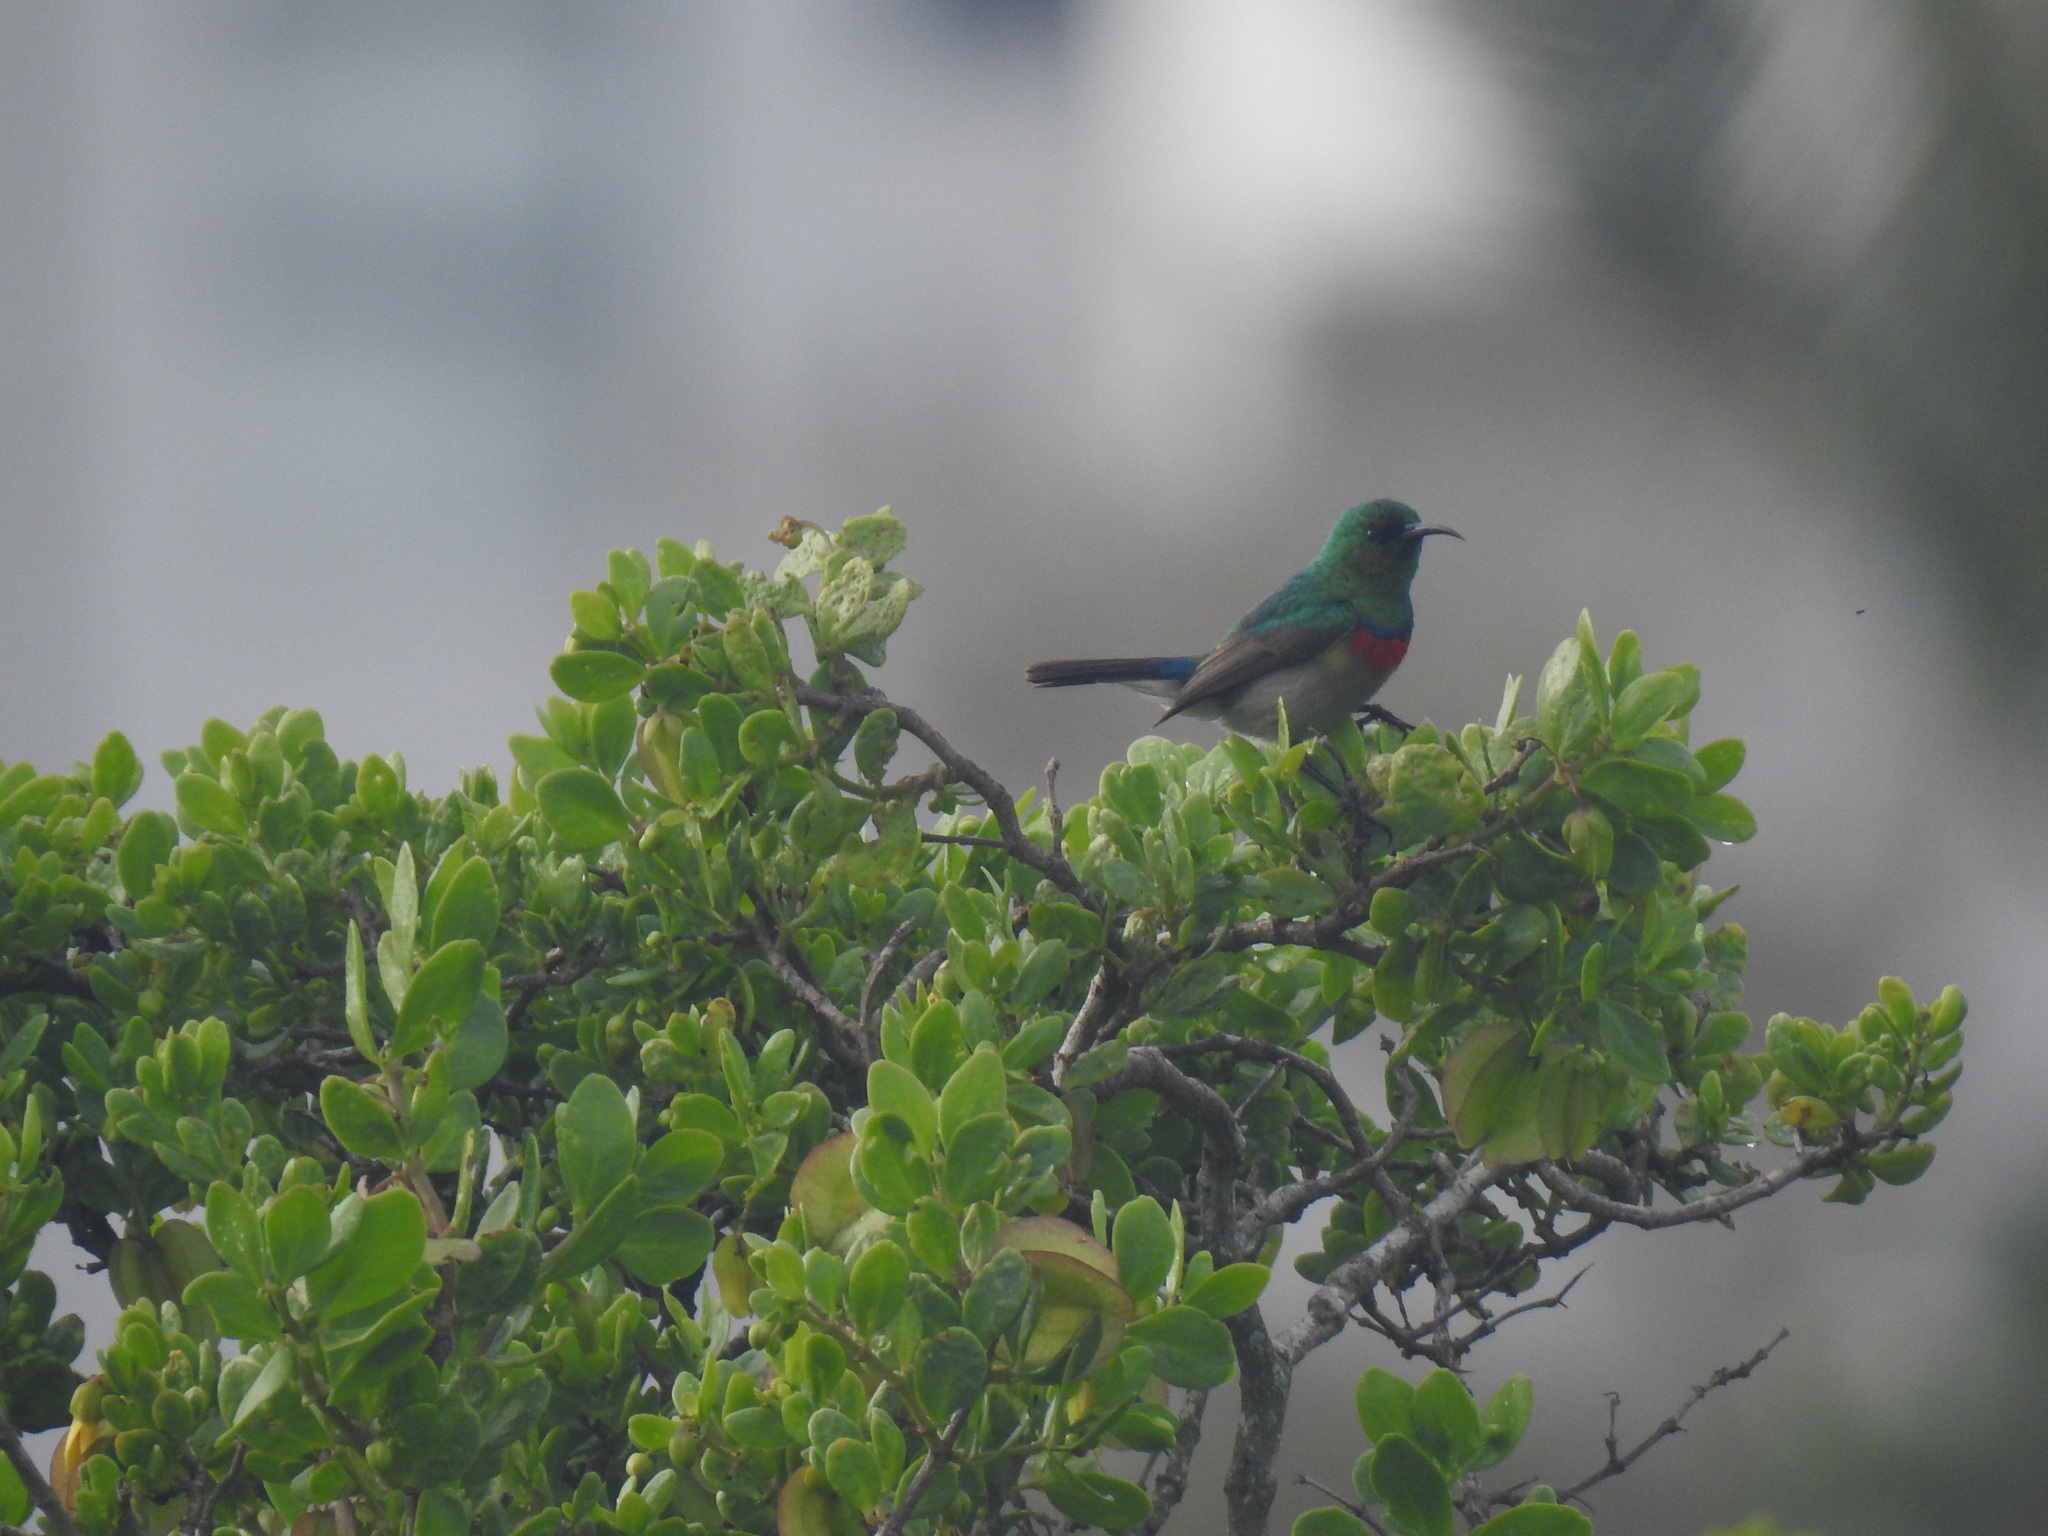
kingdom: Animalia
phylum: Chordata
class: Aves
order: Passeriformes
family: Nectariniidae
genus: Cinnyris
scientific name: Cinnyris chalybeus
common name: Southern double-collared sunbird
